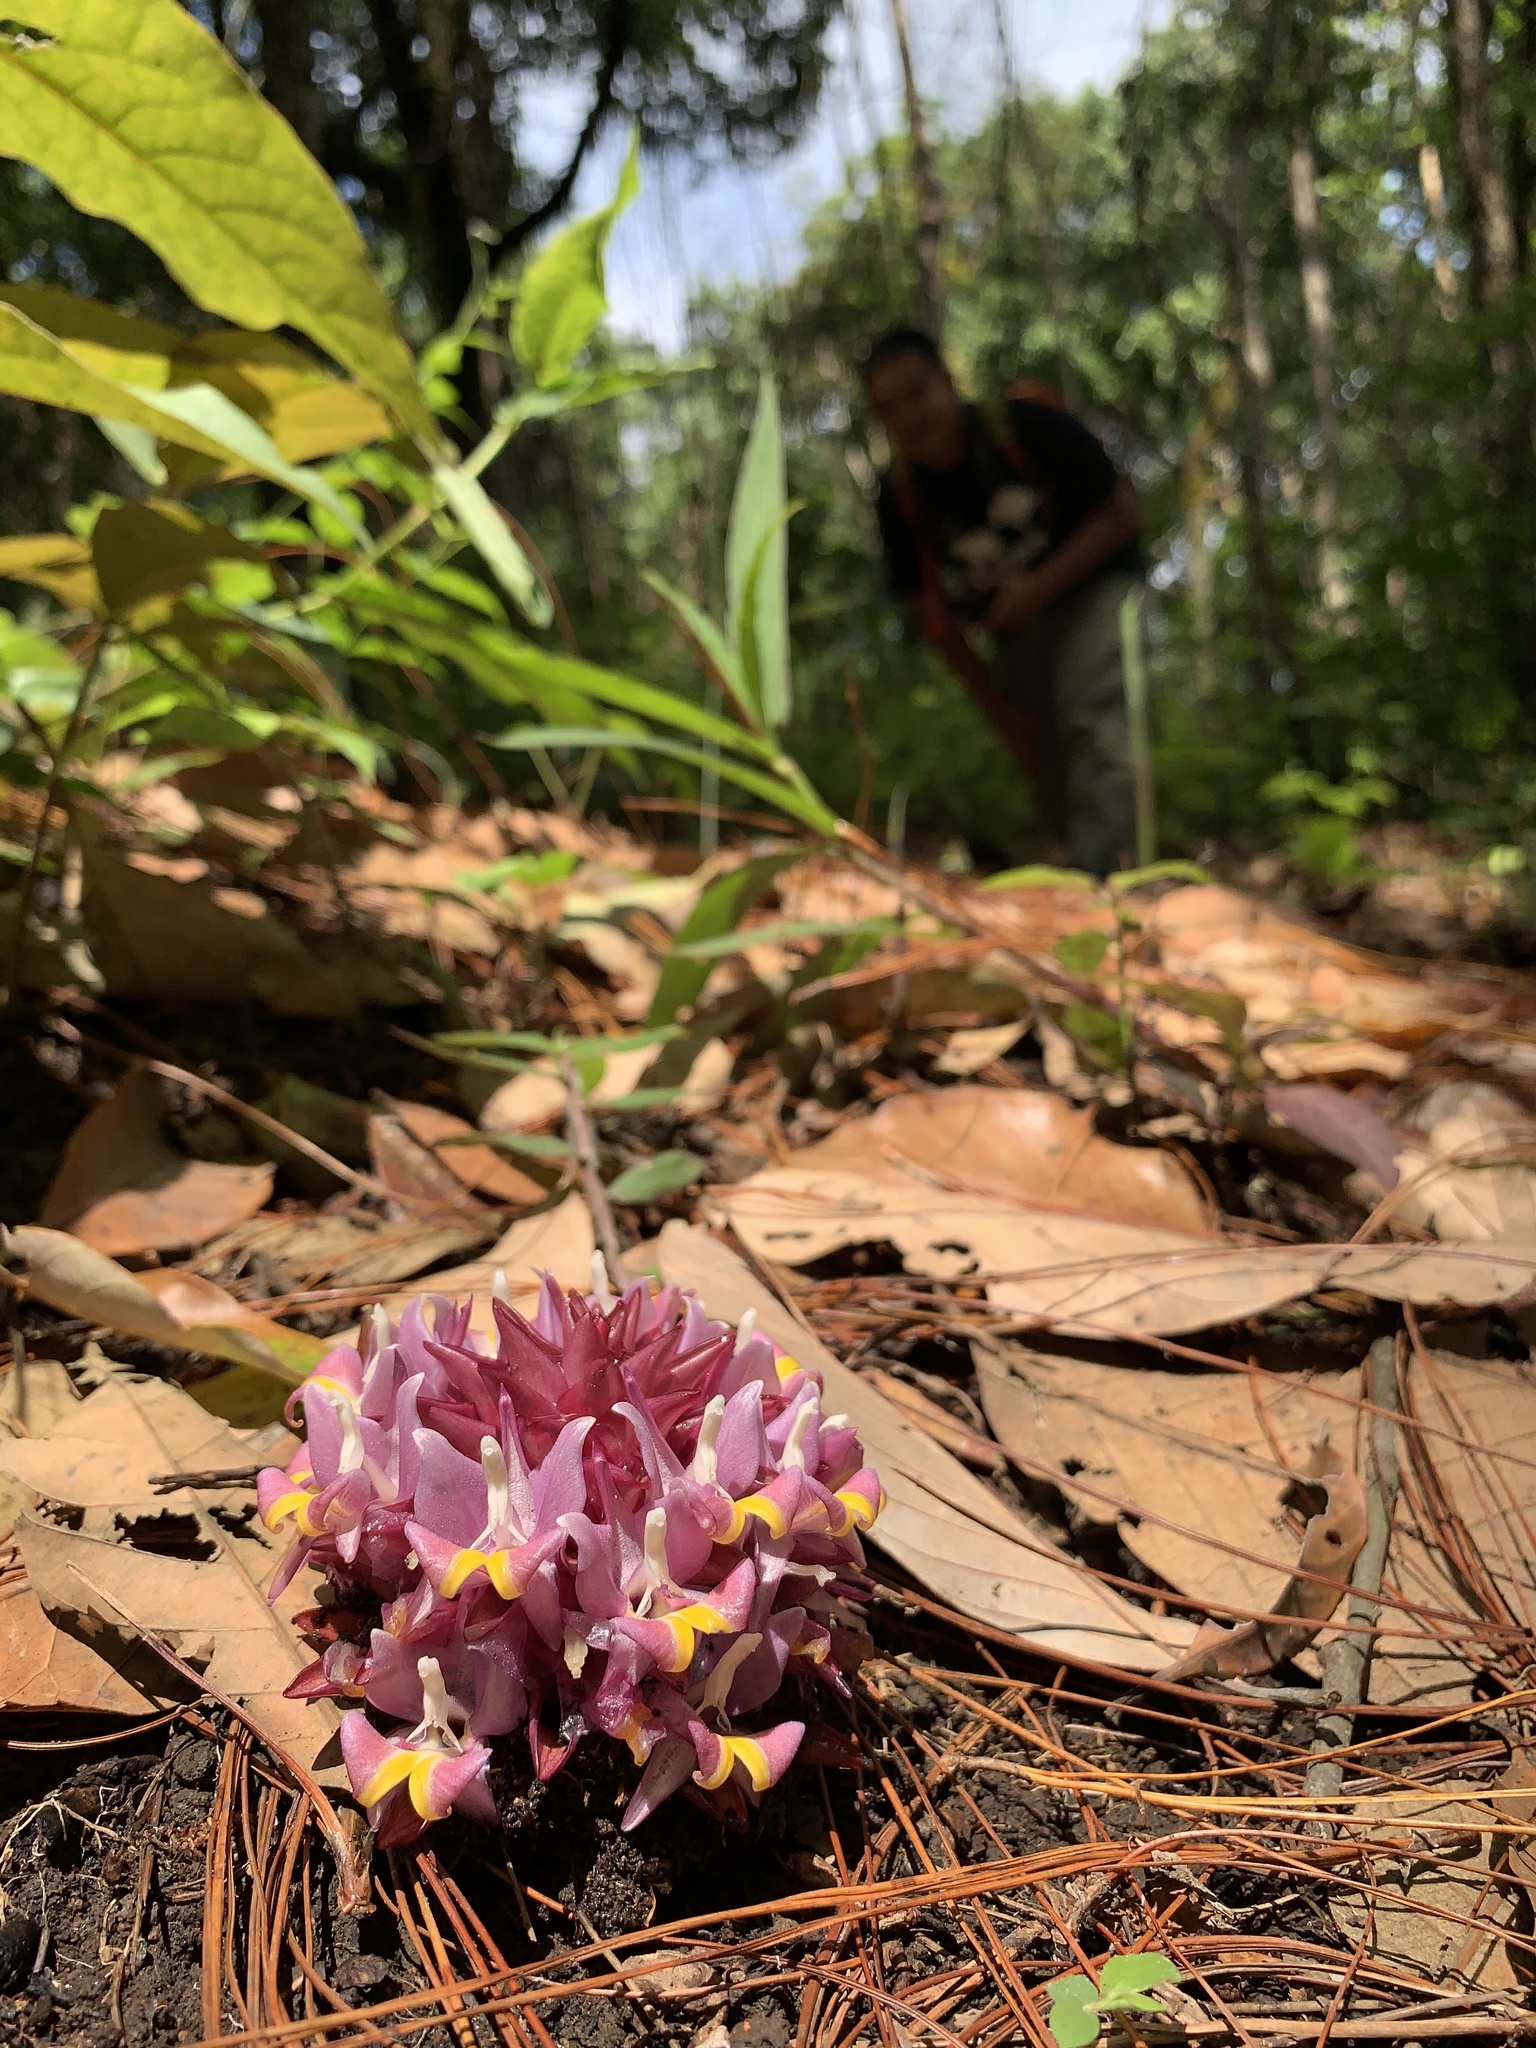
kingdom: Plantae
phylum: Tracheophyta
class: Liliopsida
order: Zingiberales
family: Zingiberaceae
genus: Curcuma
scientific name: Curcuma ecomata
